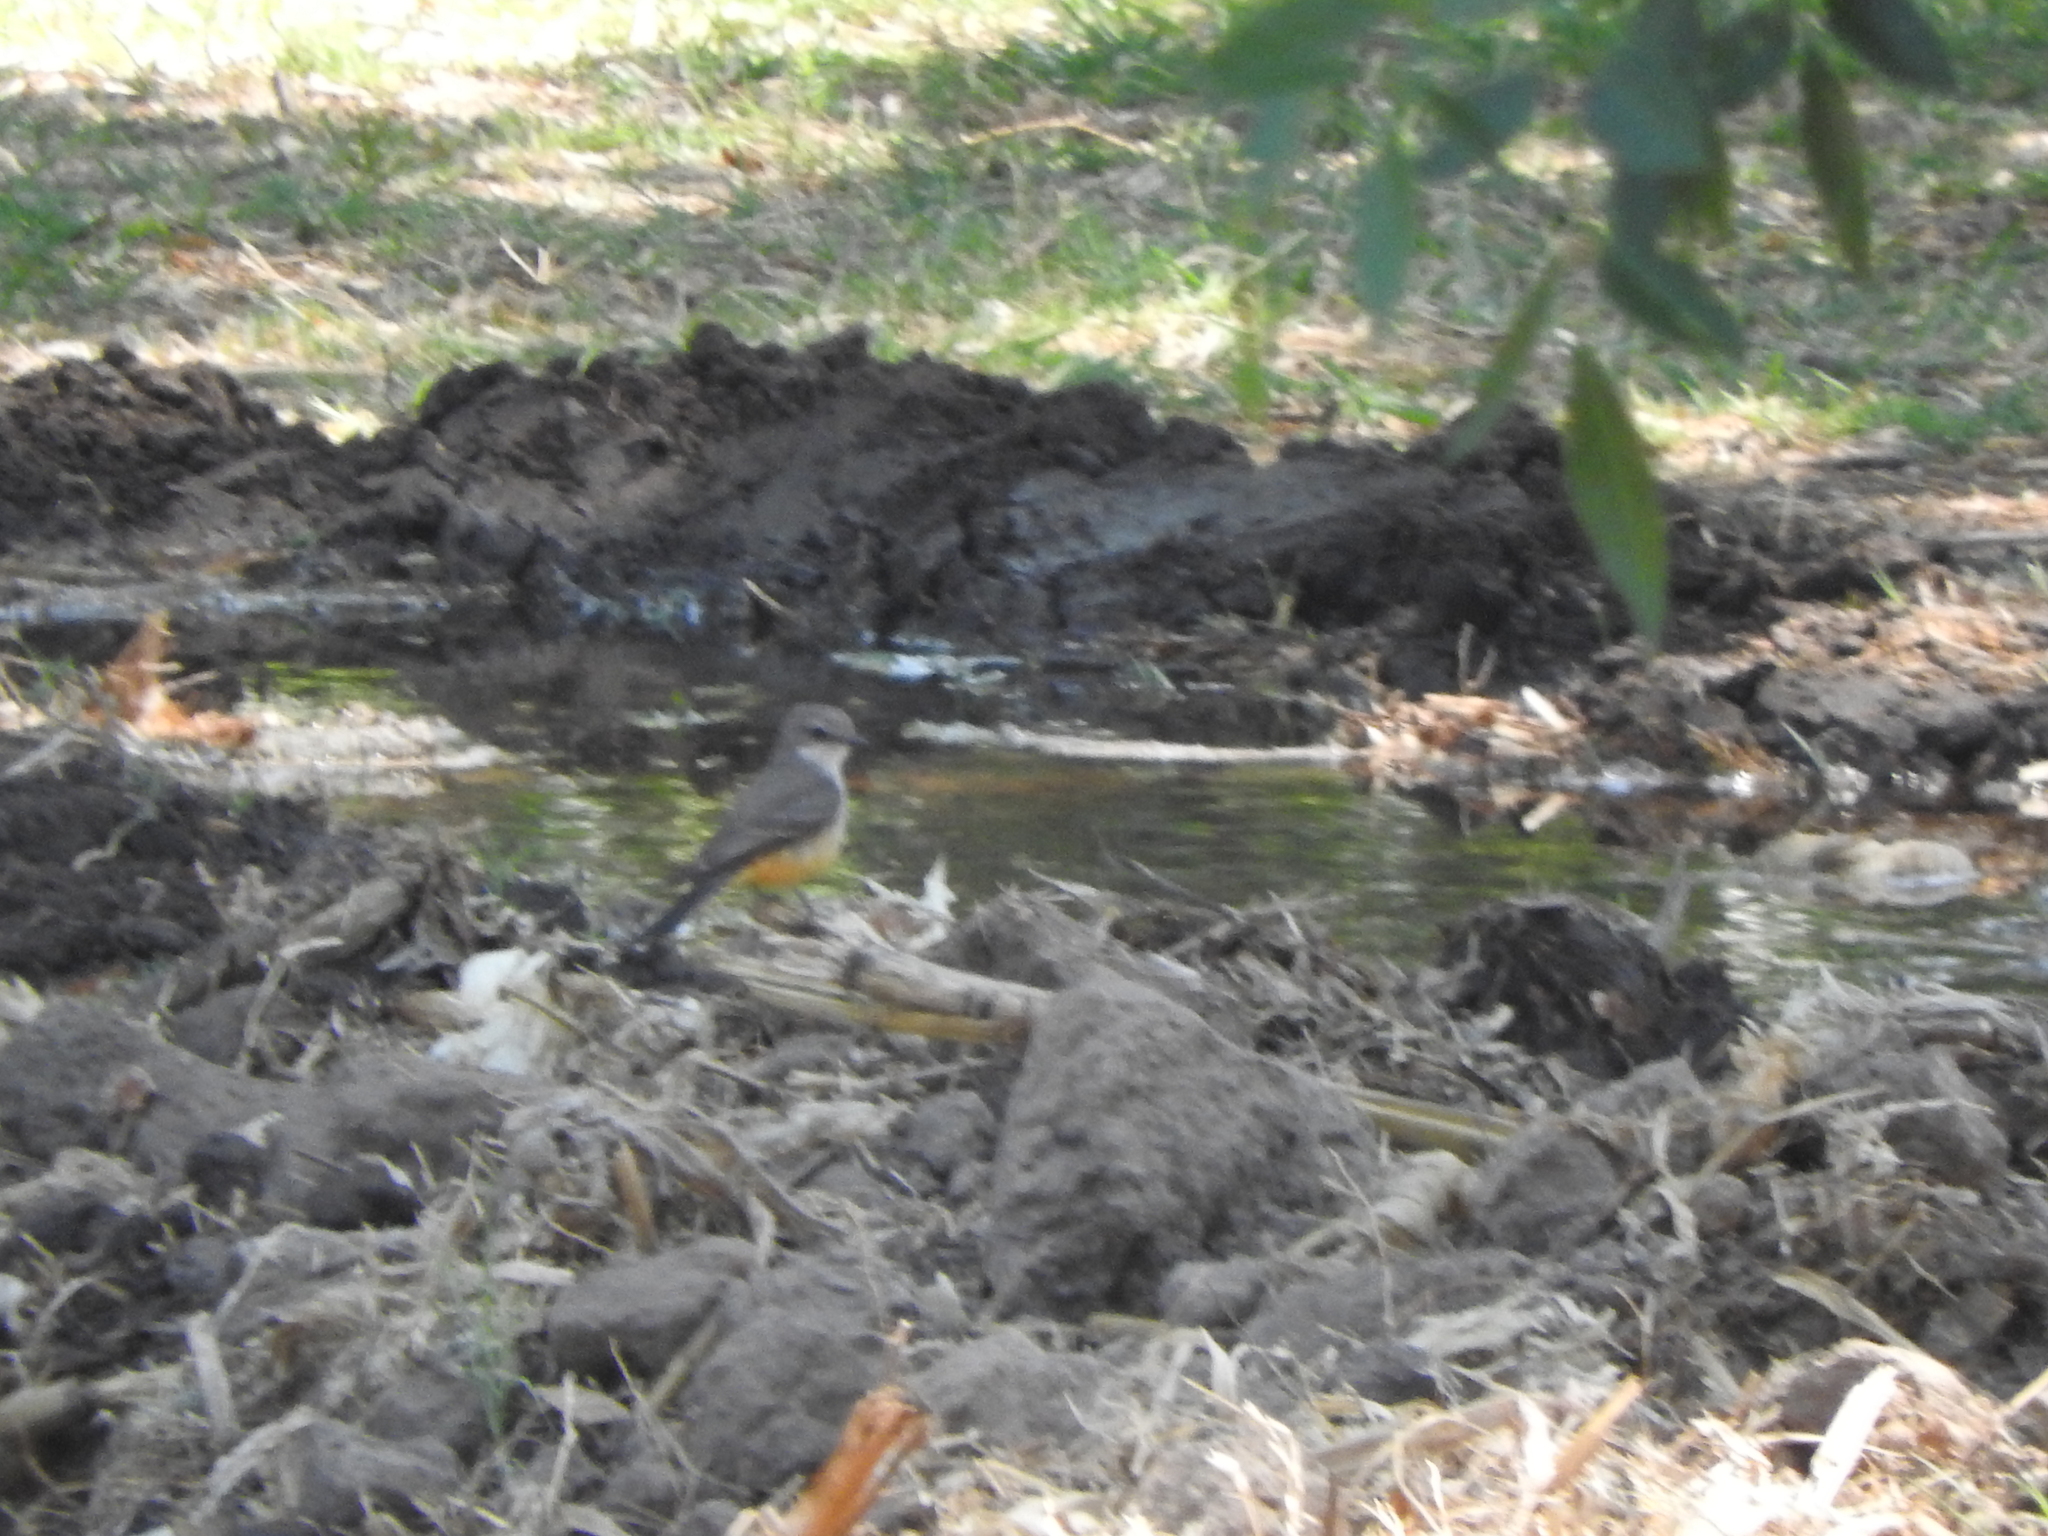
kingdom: Animalia
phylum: Chordata
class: Aves
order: Passeriformes
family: Tyrannidae
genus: Pyrocephalus
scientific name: Pyrocephalus rubinus
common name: Vermilion flycatcher
